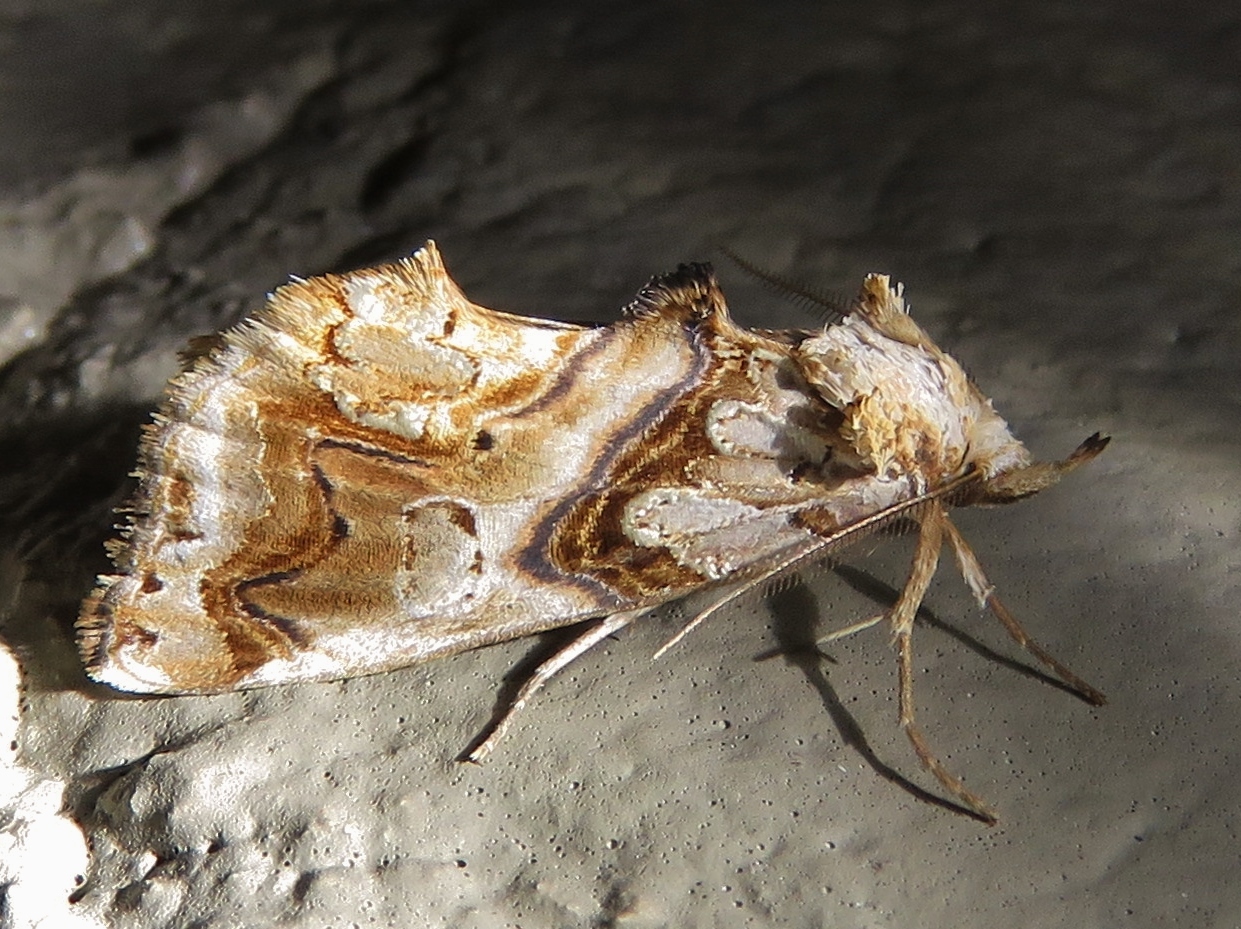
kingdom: Animalia
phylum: Arthropoda
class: Insecta
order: Lepidoptera
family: Erebidae
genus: Plusiodonta
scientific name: Plusiodonta compressipalpis
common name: Moonseed moth
